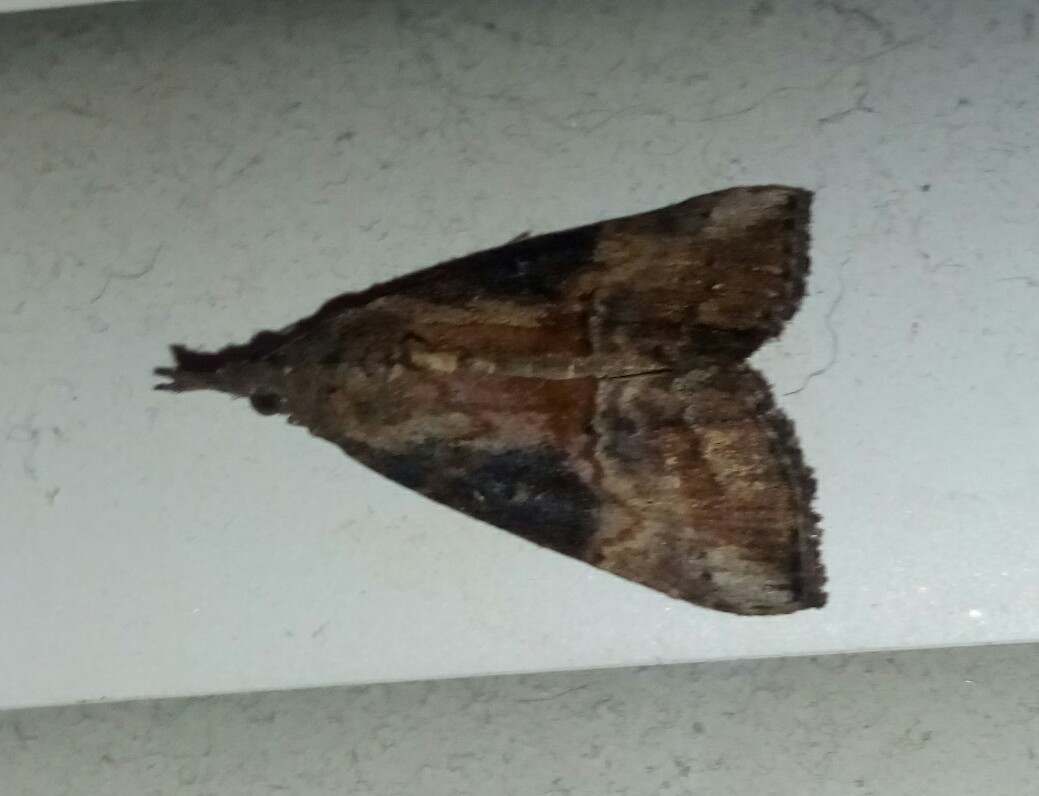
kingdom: Animalia
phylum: Arthropoda
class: Insecta
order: Lepidoptera
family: Erebidae
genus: Hypena
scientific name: Hypena scabra
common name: Green cloverworm
